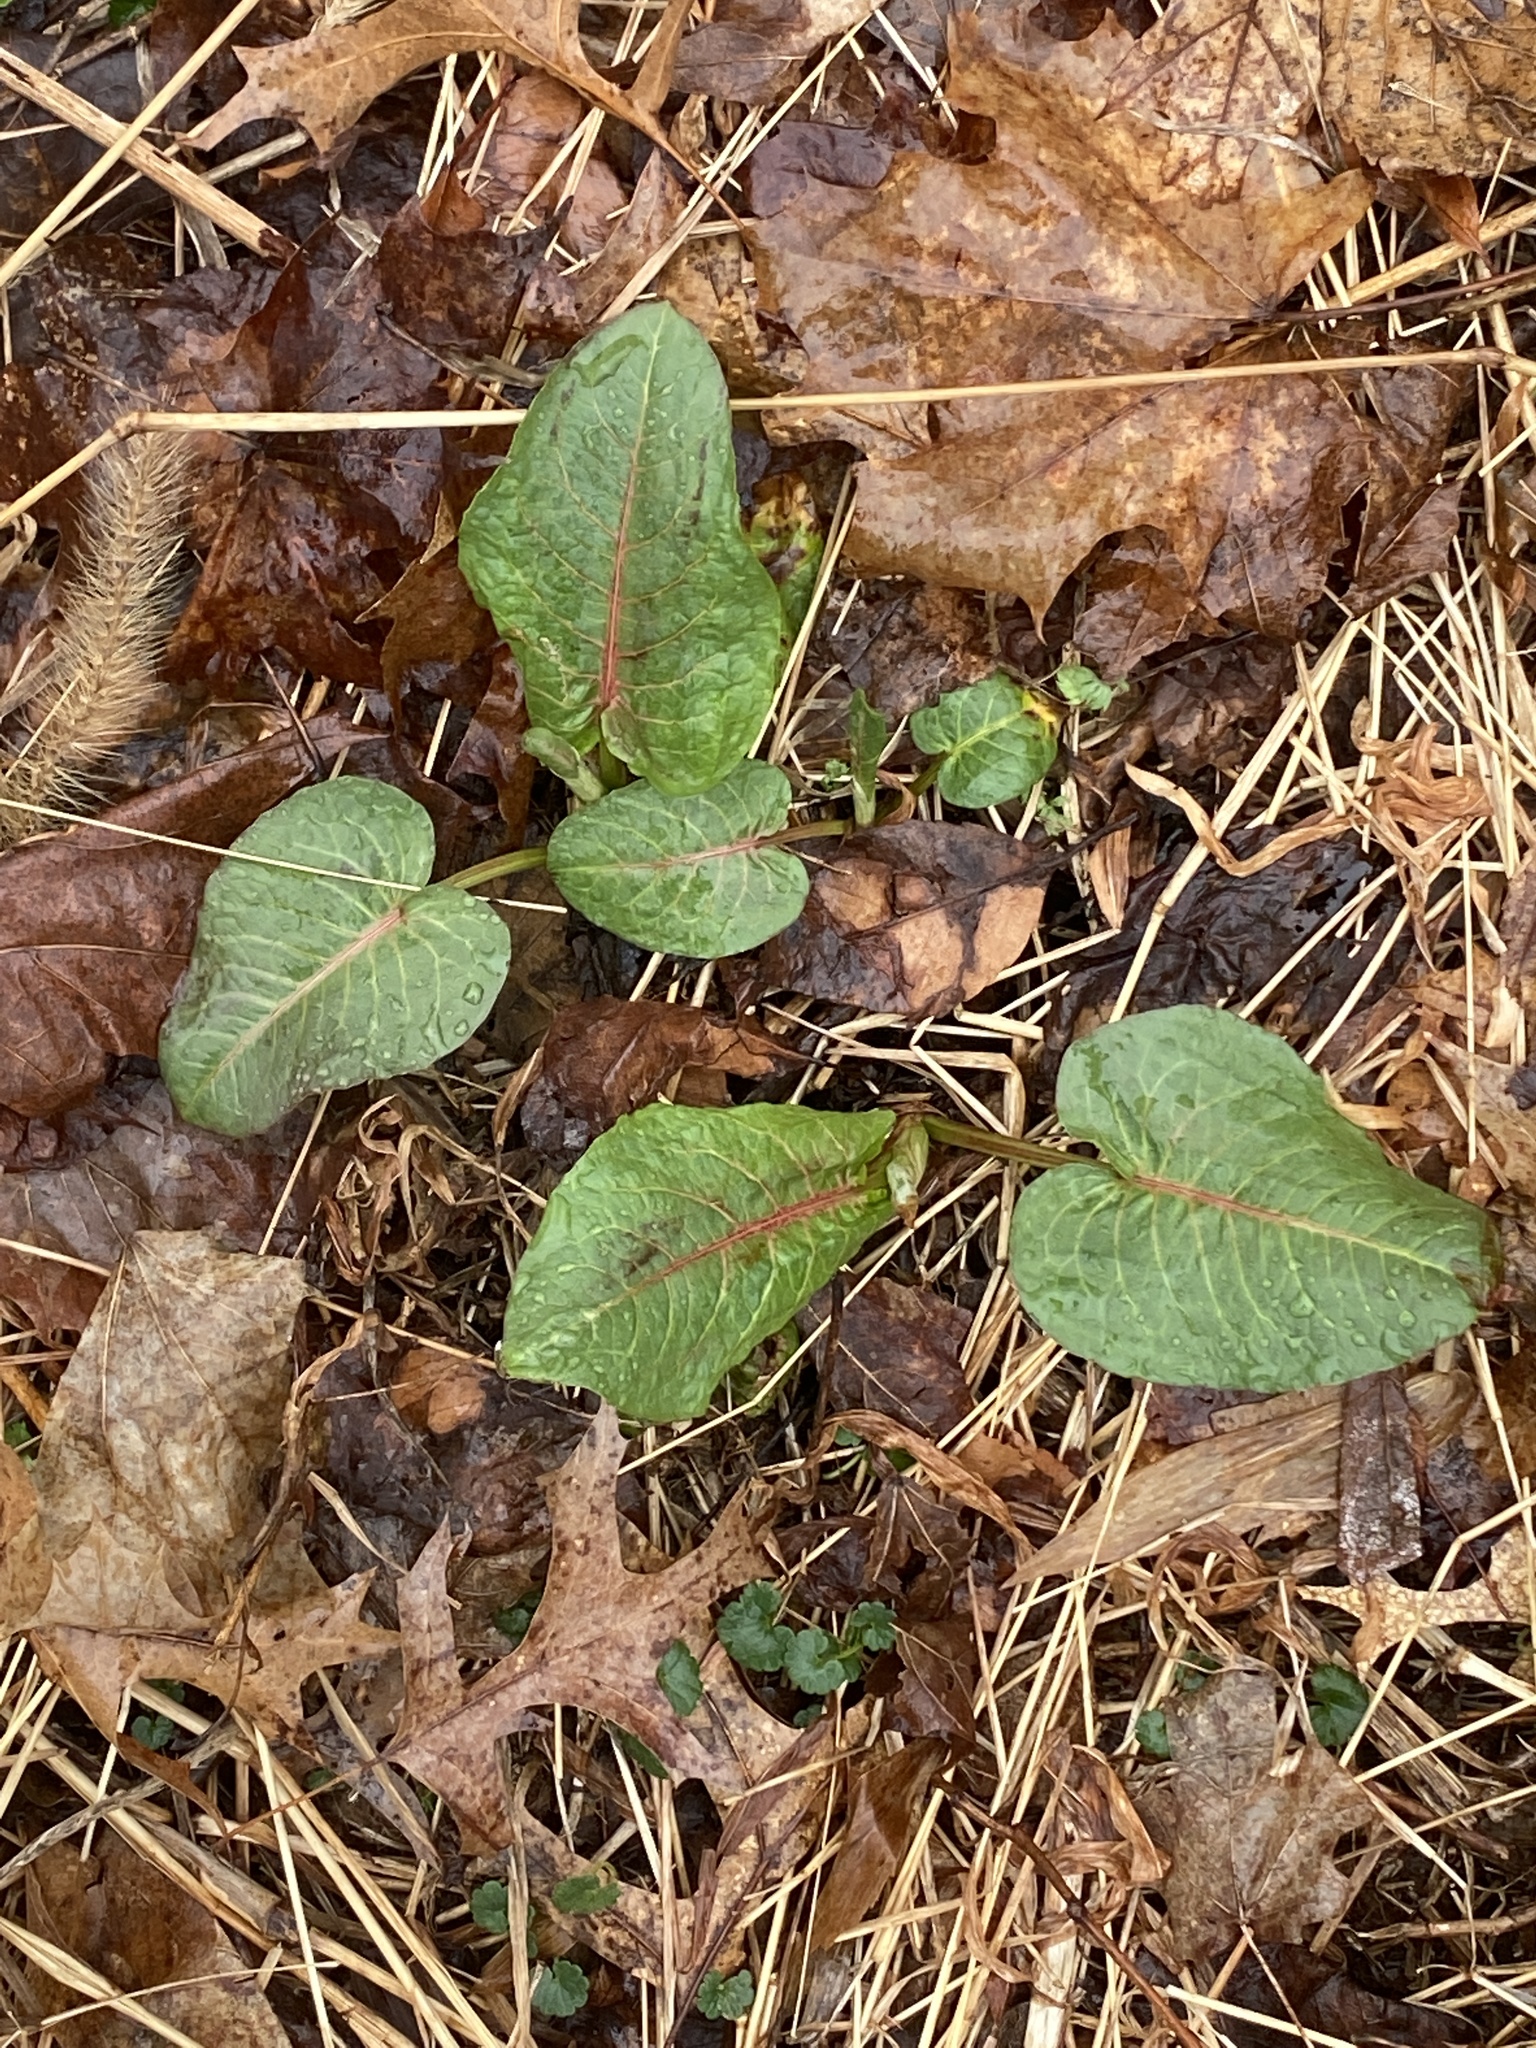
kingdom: Plantae
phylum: Tracheophyta
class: Magnoliopsida
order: Caryophyllales
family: Polygonaceae
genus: Rumex
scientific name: Rumex obtusifolius
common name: Bitter dock
